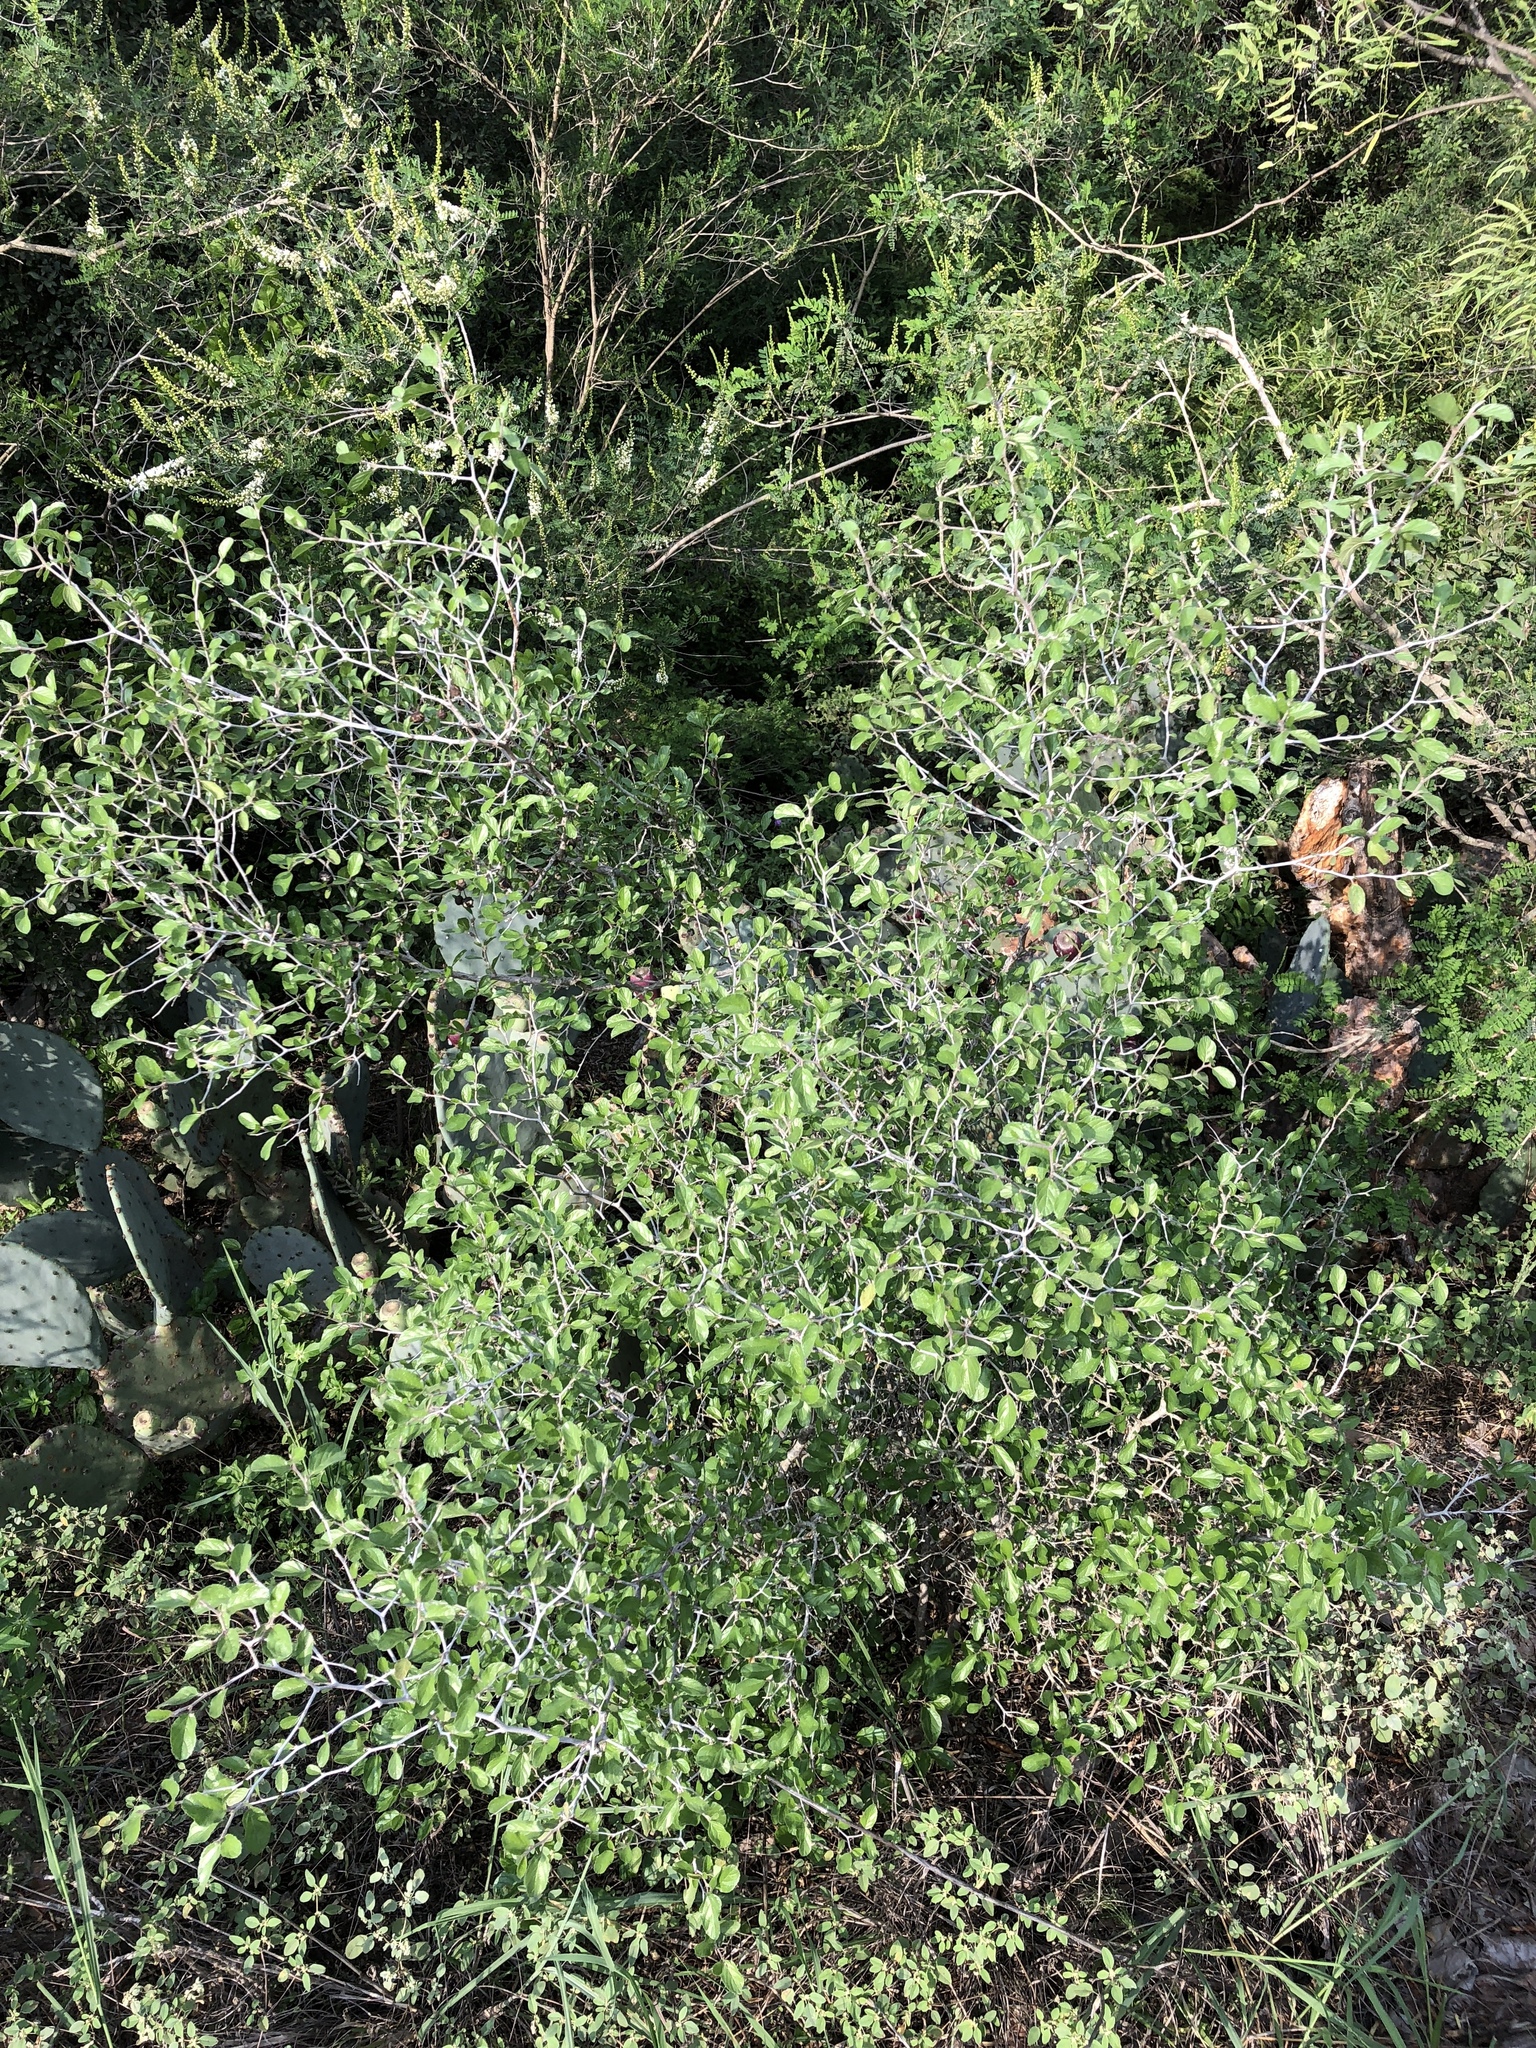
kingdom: Plantae
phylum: Tracheophyta
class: Magnoliopsida
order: Rosales
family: Rhamnaceae
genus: Colubrina
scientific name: Colubrina texensis
